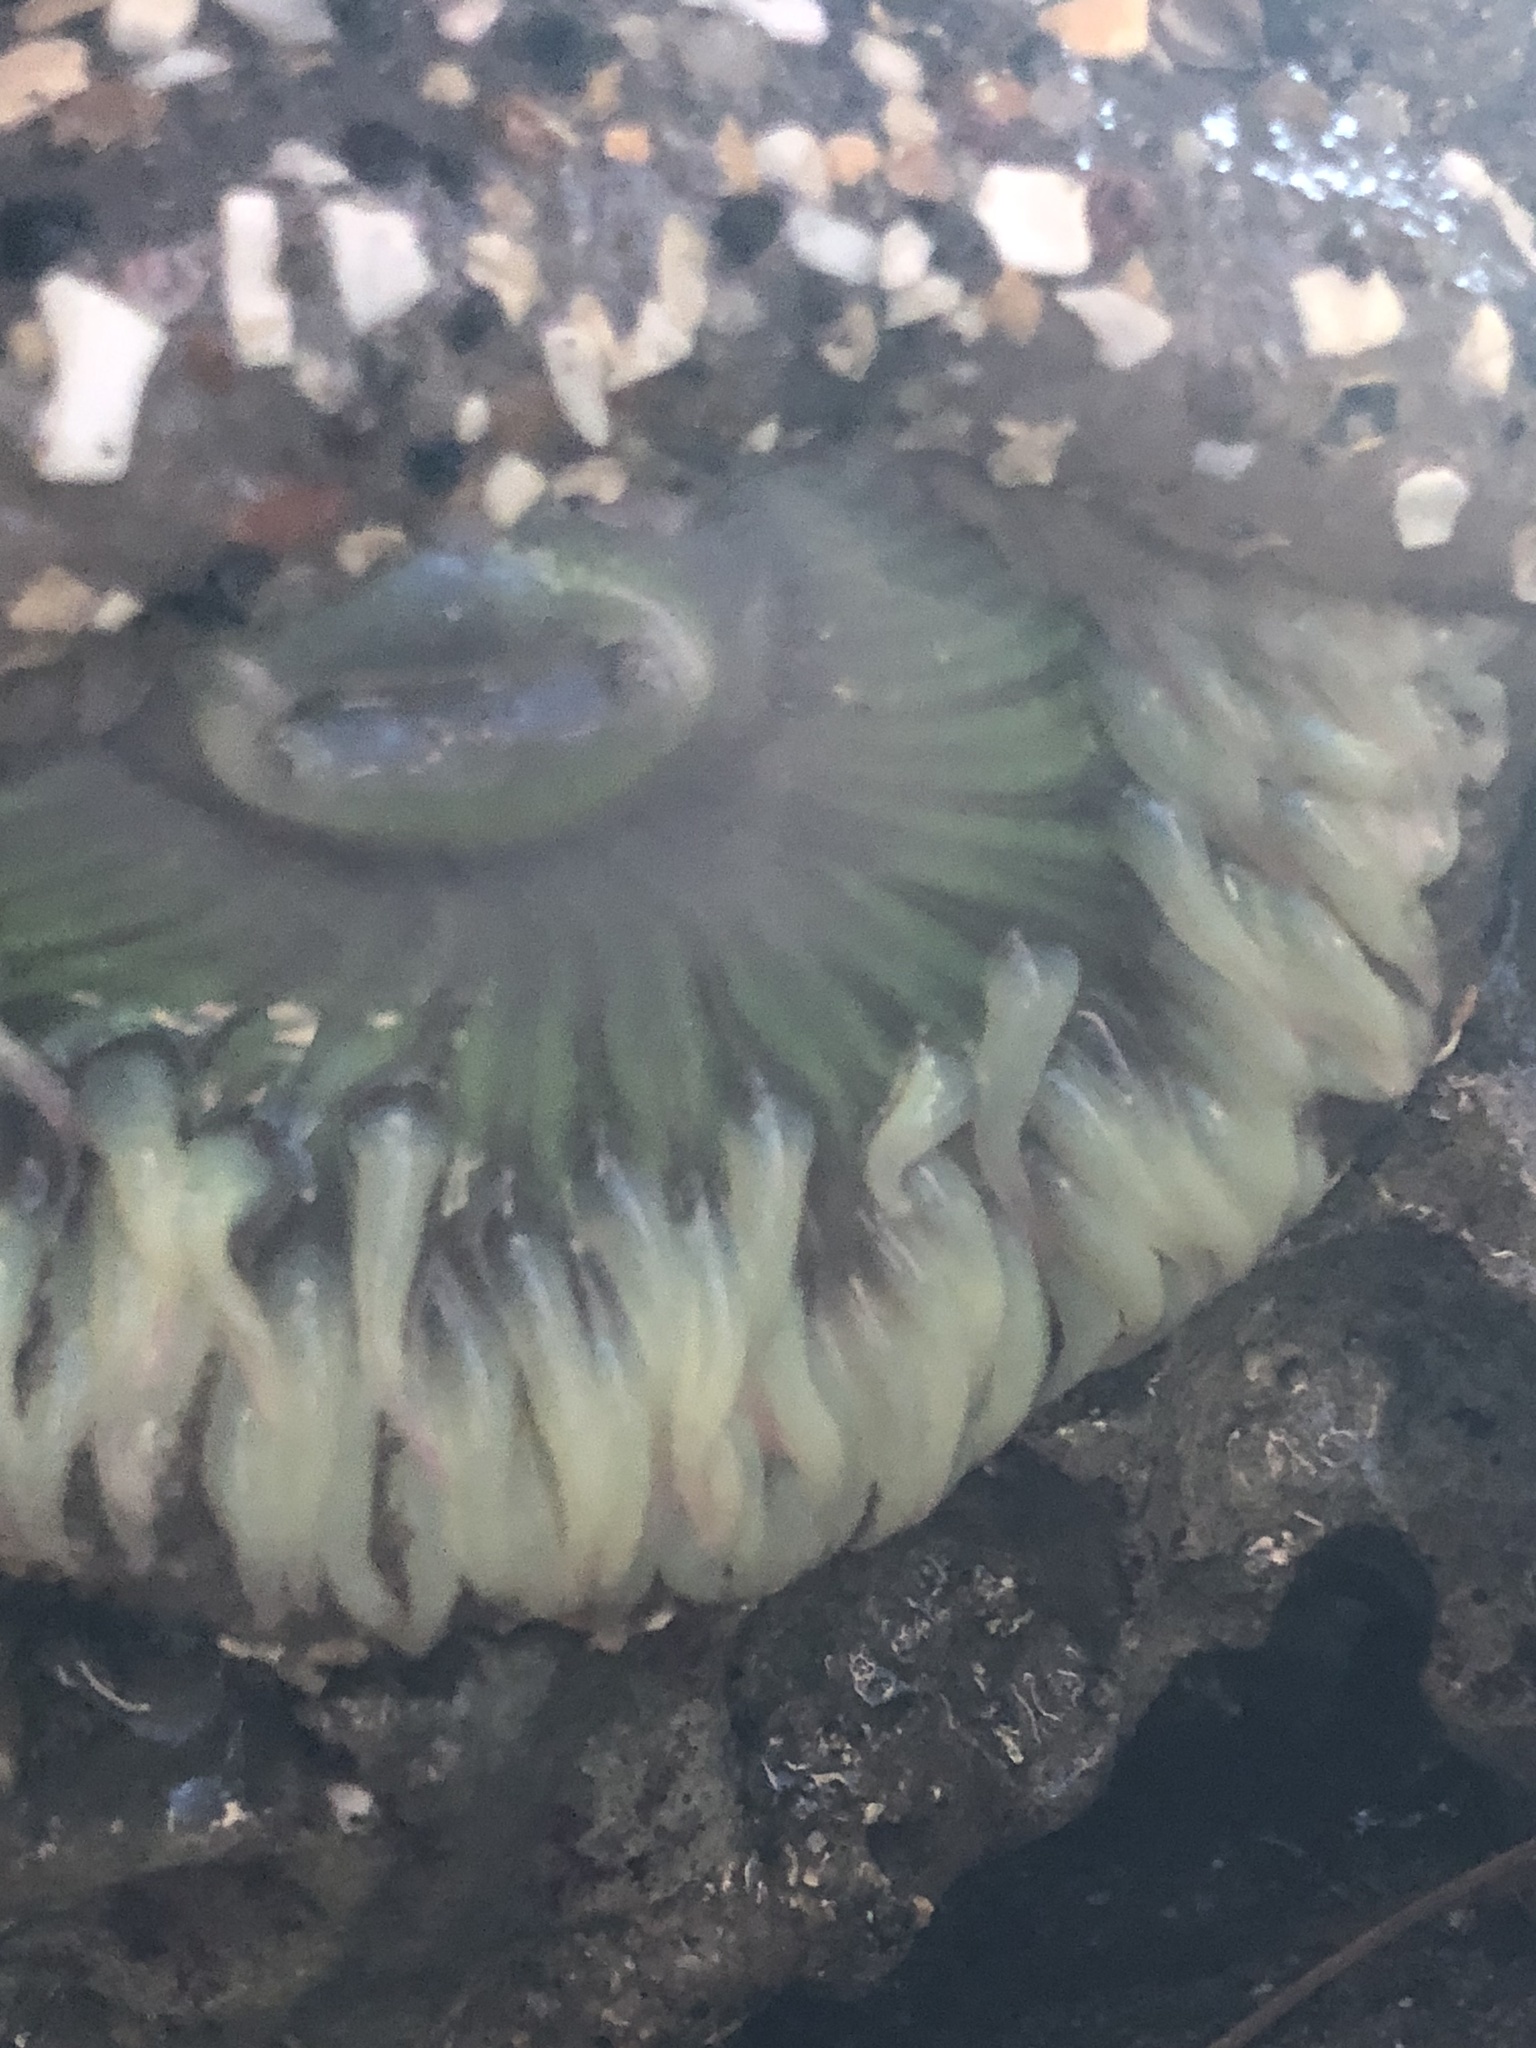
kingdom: Animalia
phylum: Cnidaria
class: Anthozoa
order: Actiniaria
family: Actiniidae
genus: Anthopleura
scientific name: Anthopleura sola
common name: Sun anemone
